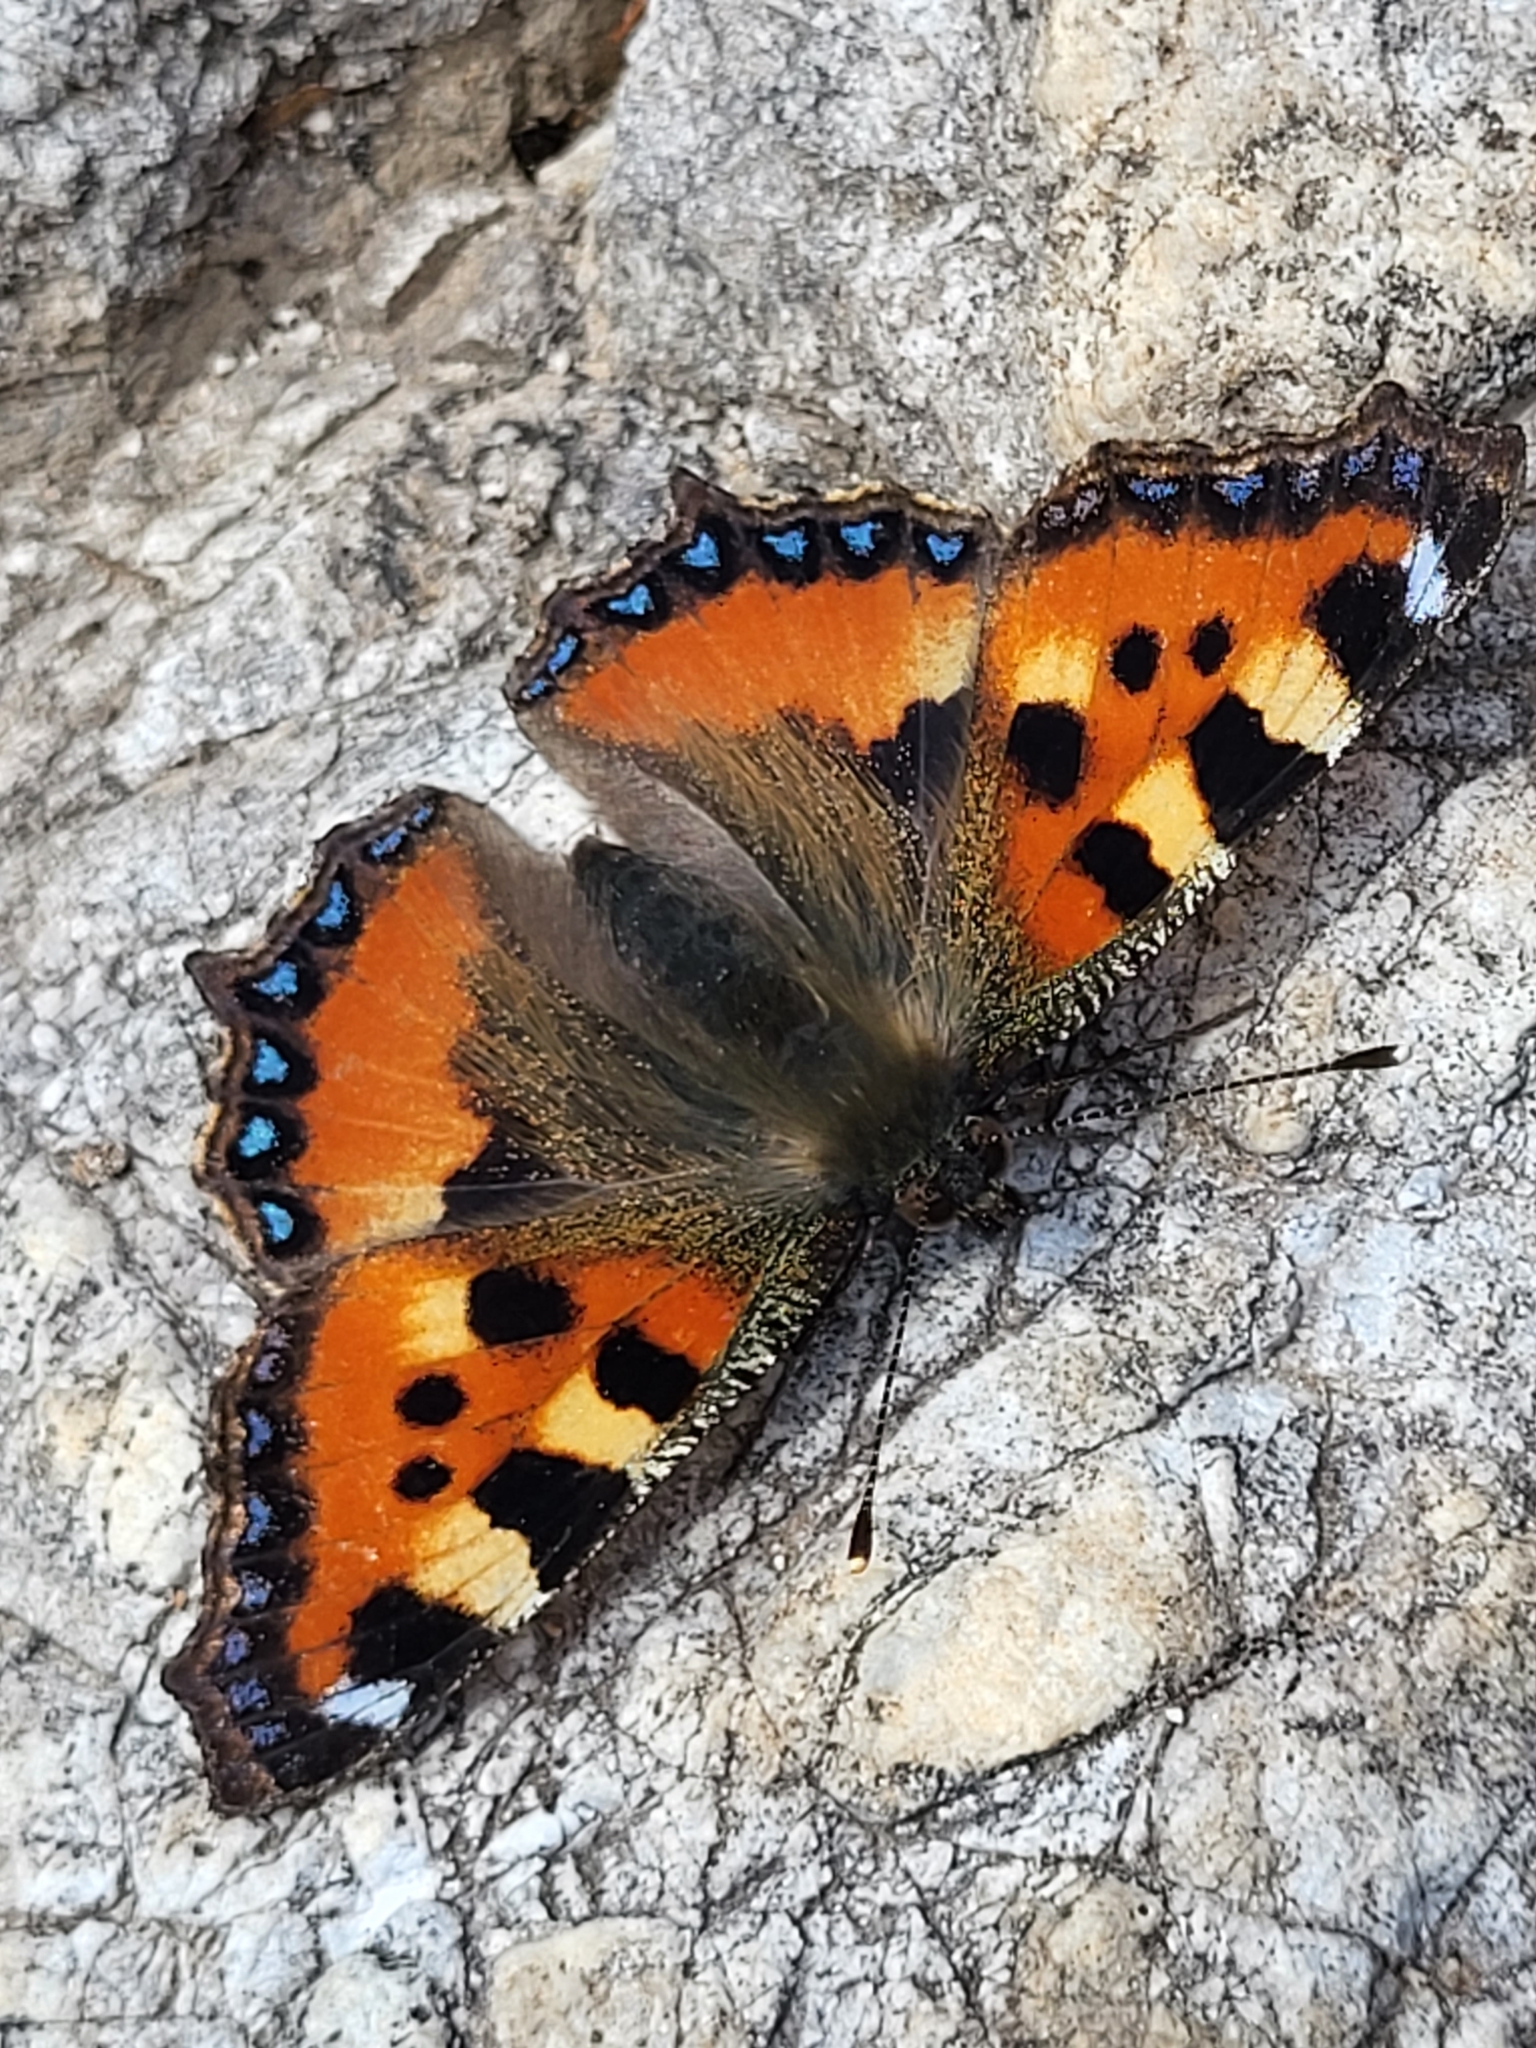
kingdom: Animalia
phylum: Arthropoda
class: Insecta
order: Lepidoptera
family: Nymphalidae
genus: Aglais
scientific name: Aglais urticae
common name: Small tortoiseshell
